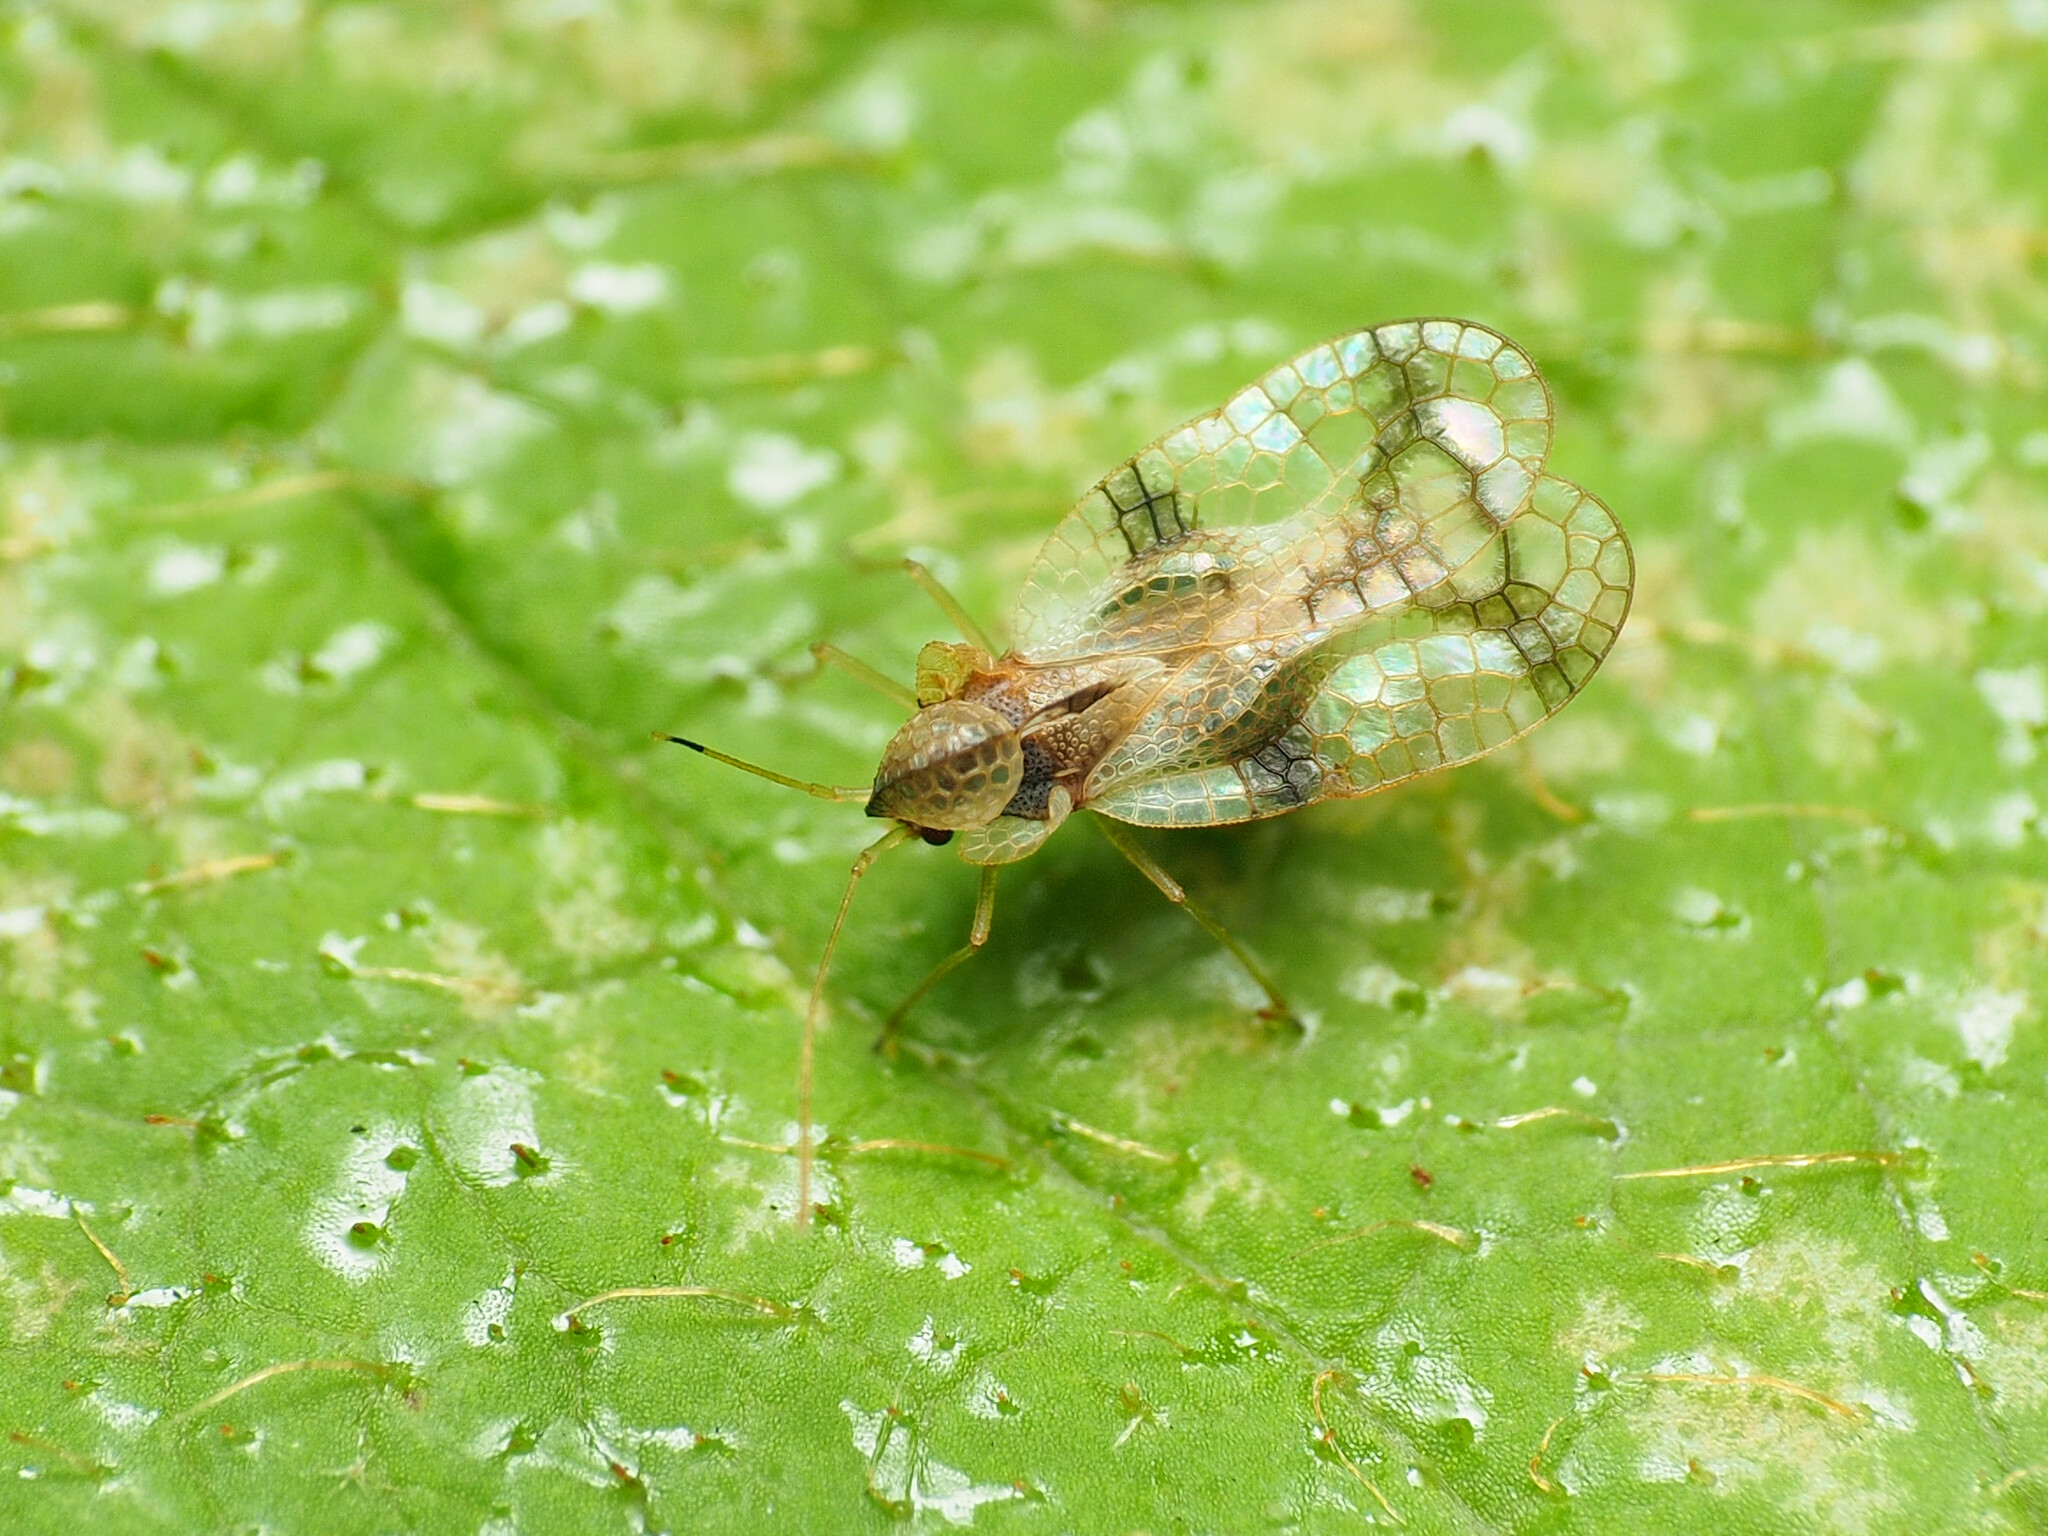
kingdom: Animalia
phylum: Arthropoda
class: Insecta
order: Hemiptera
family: Tingidae
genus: Stephanitis
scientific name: Stephanitis pyrioides
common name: Azalea lace bug
